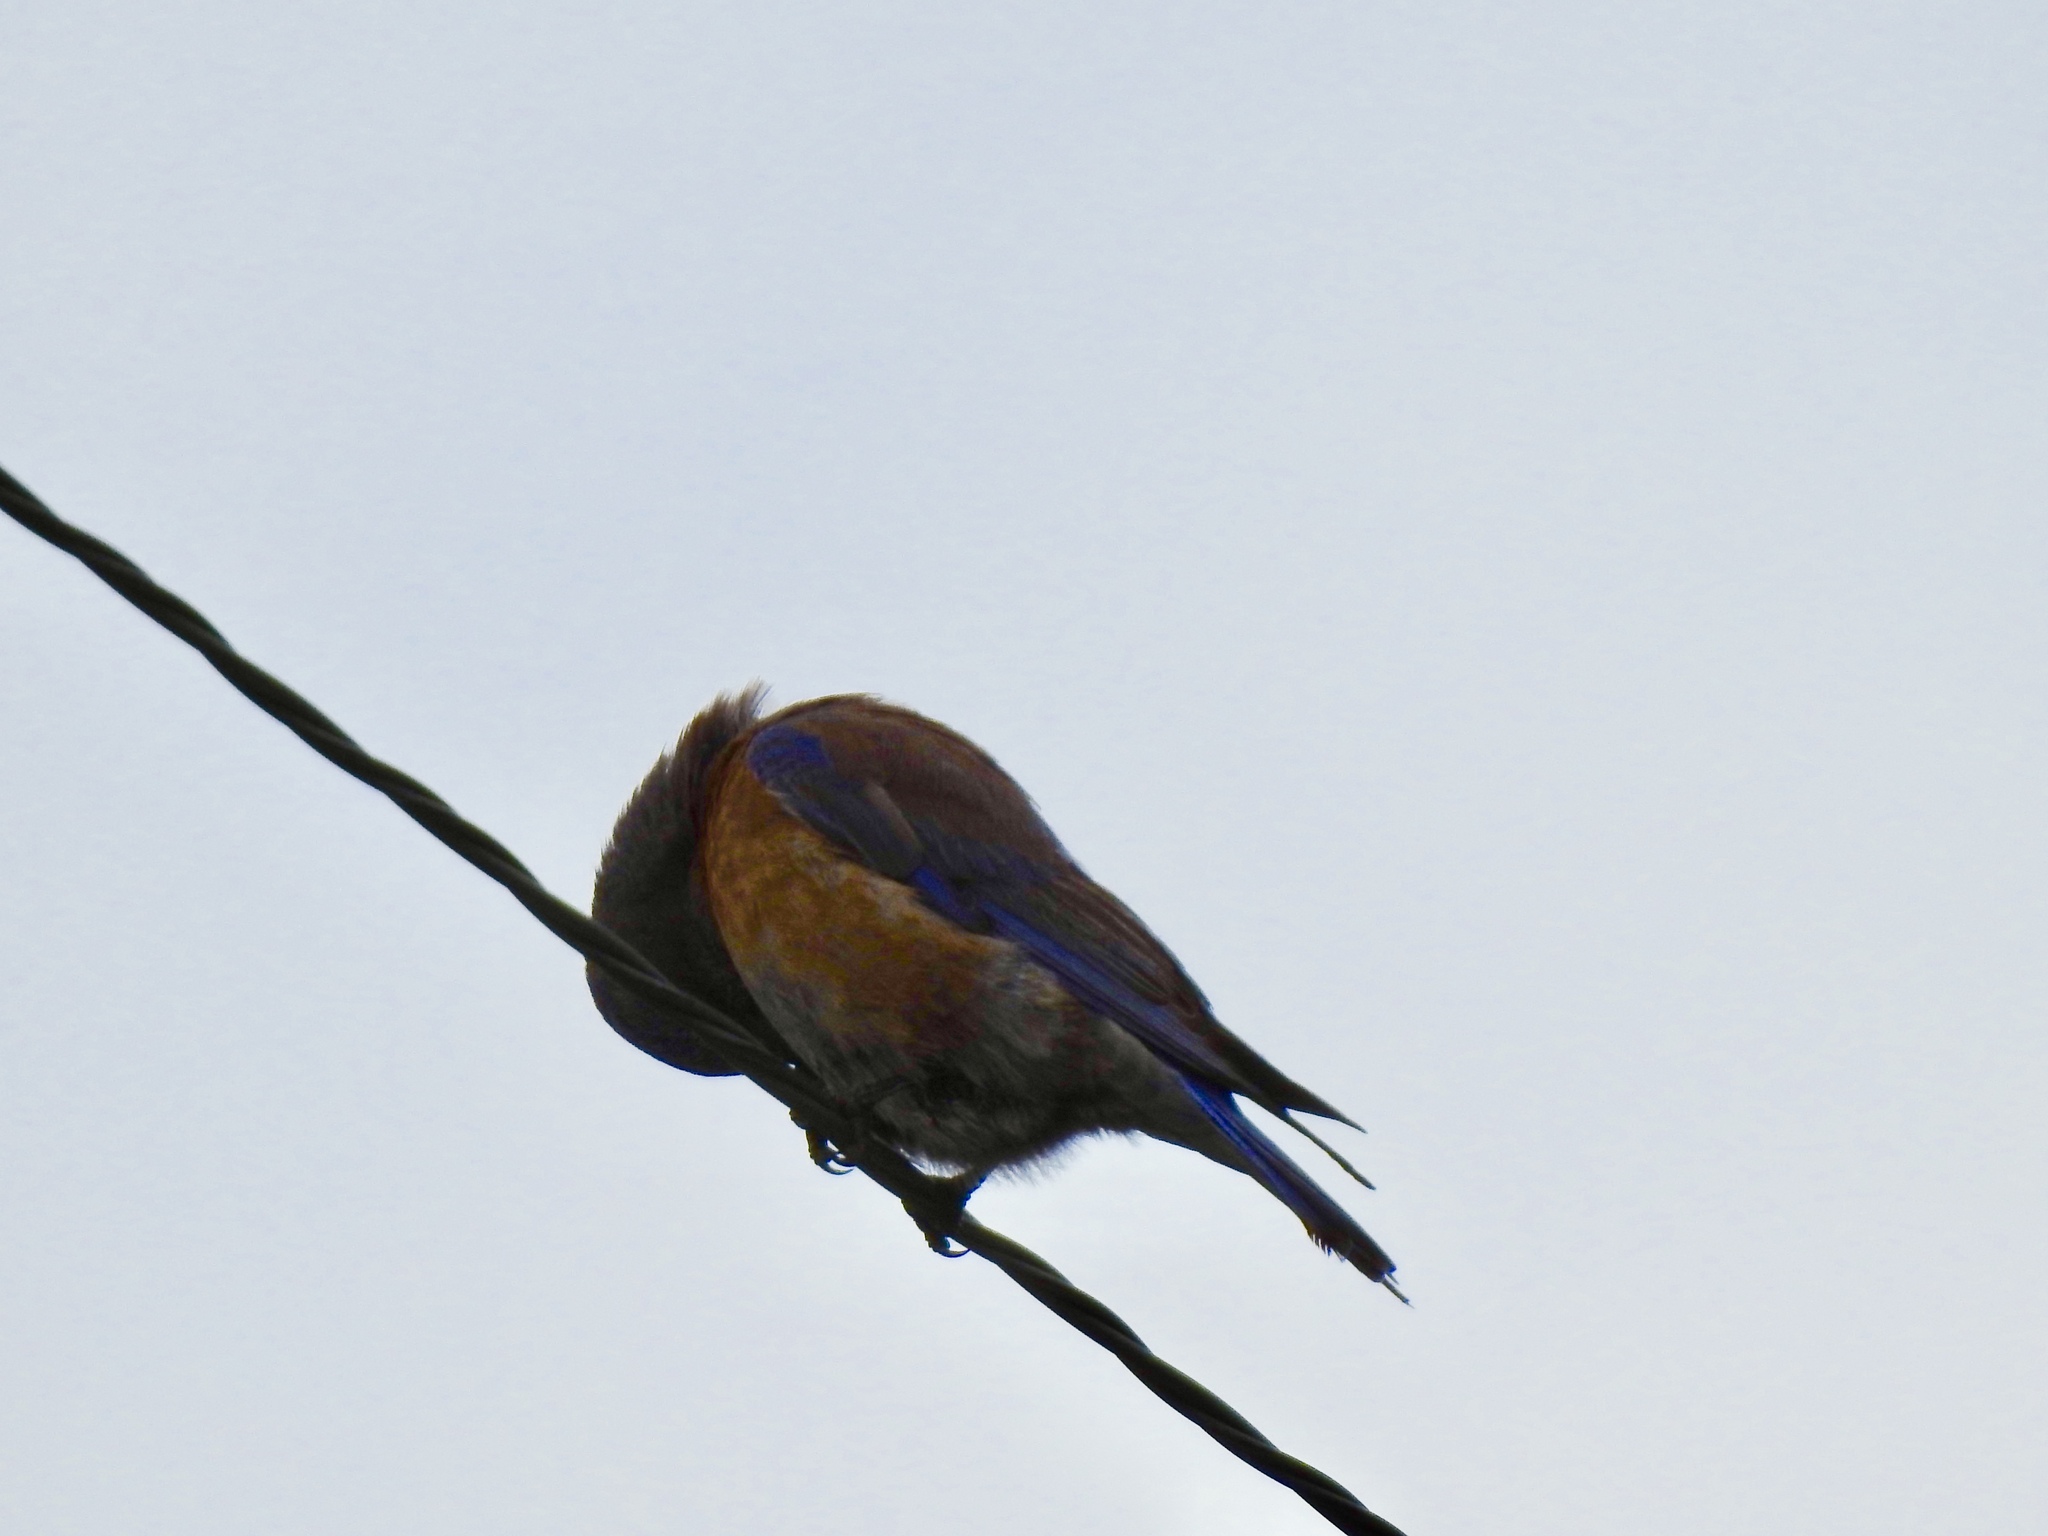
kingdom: Animalia
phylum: Chordata
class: Aves
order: Passeriformes
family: Turdidae
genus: Sialia
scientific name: Sialia mexicana
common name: Western bluebird
